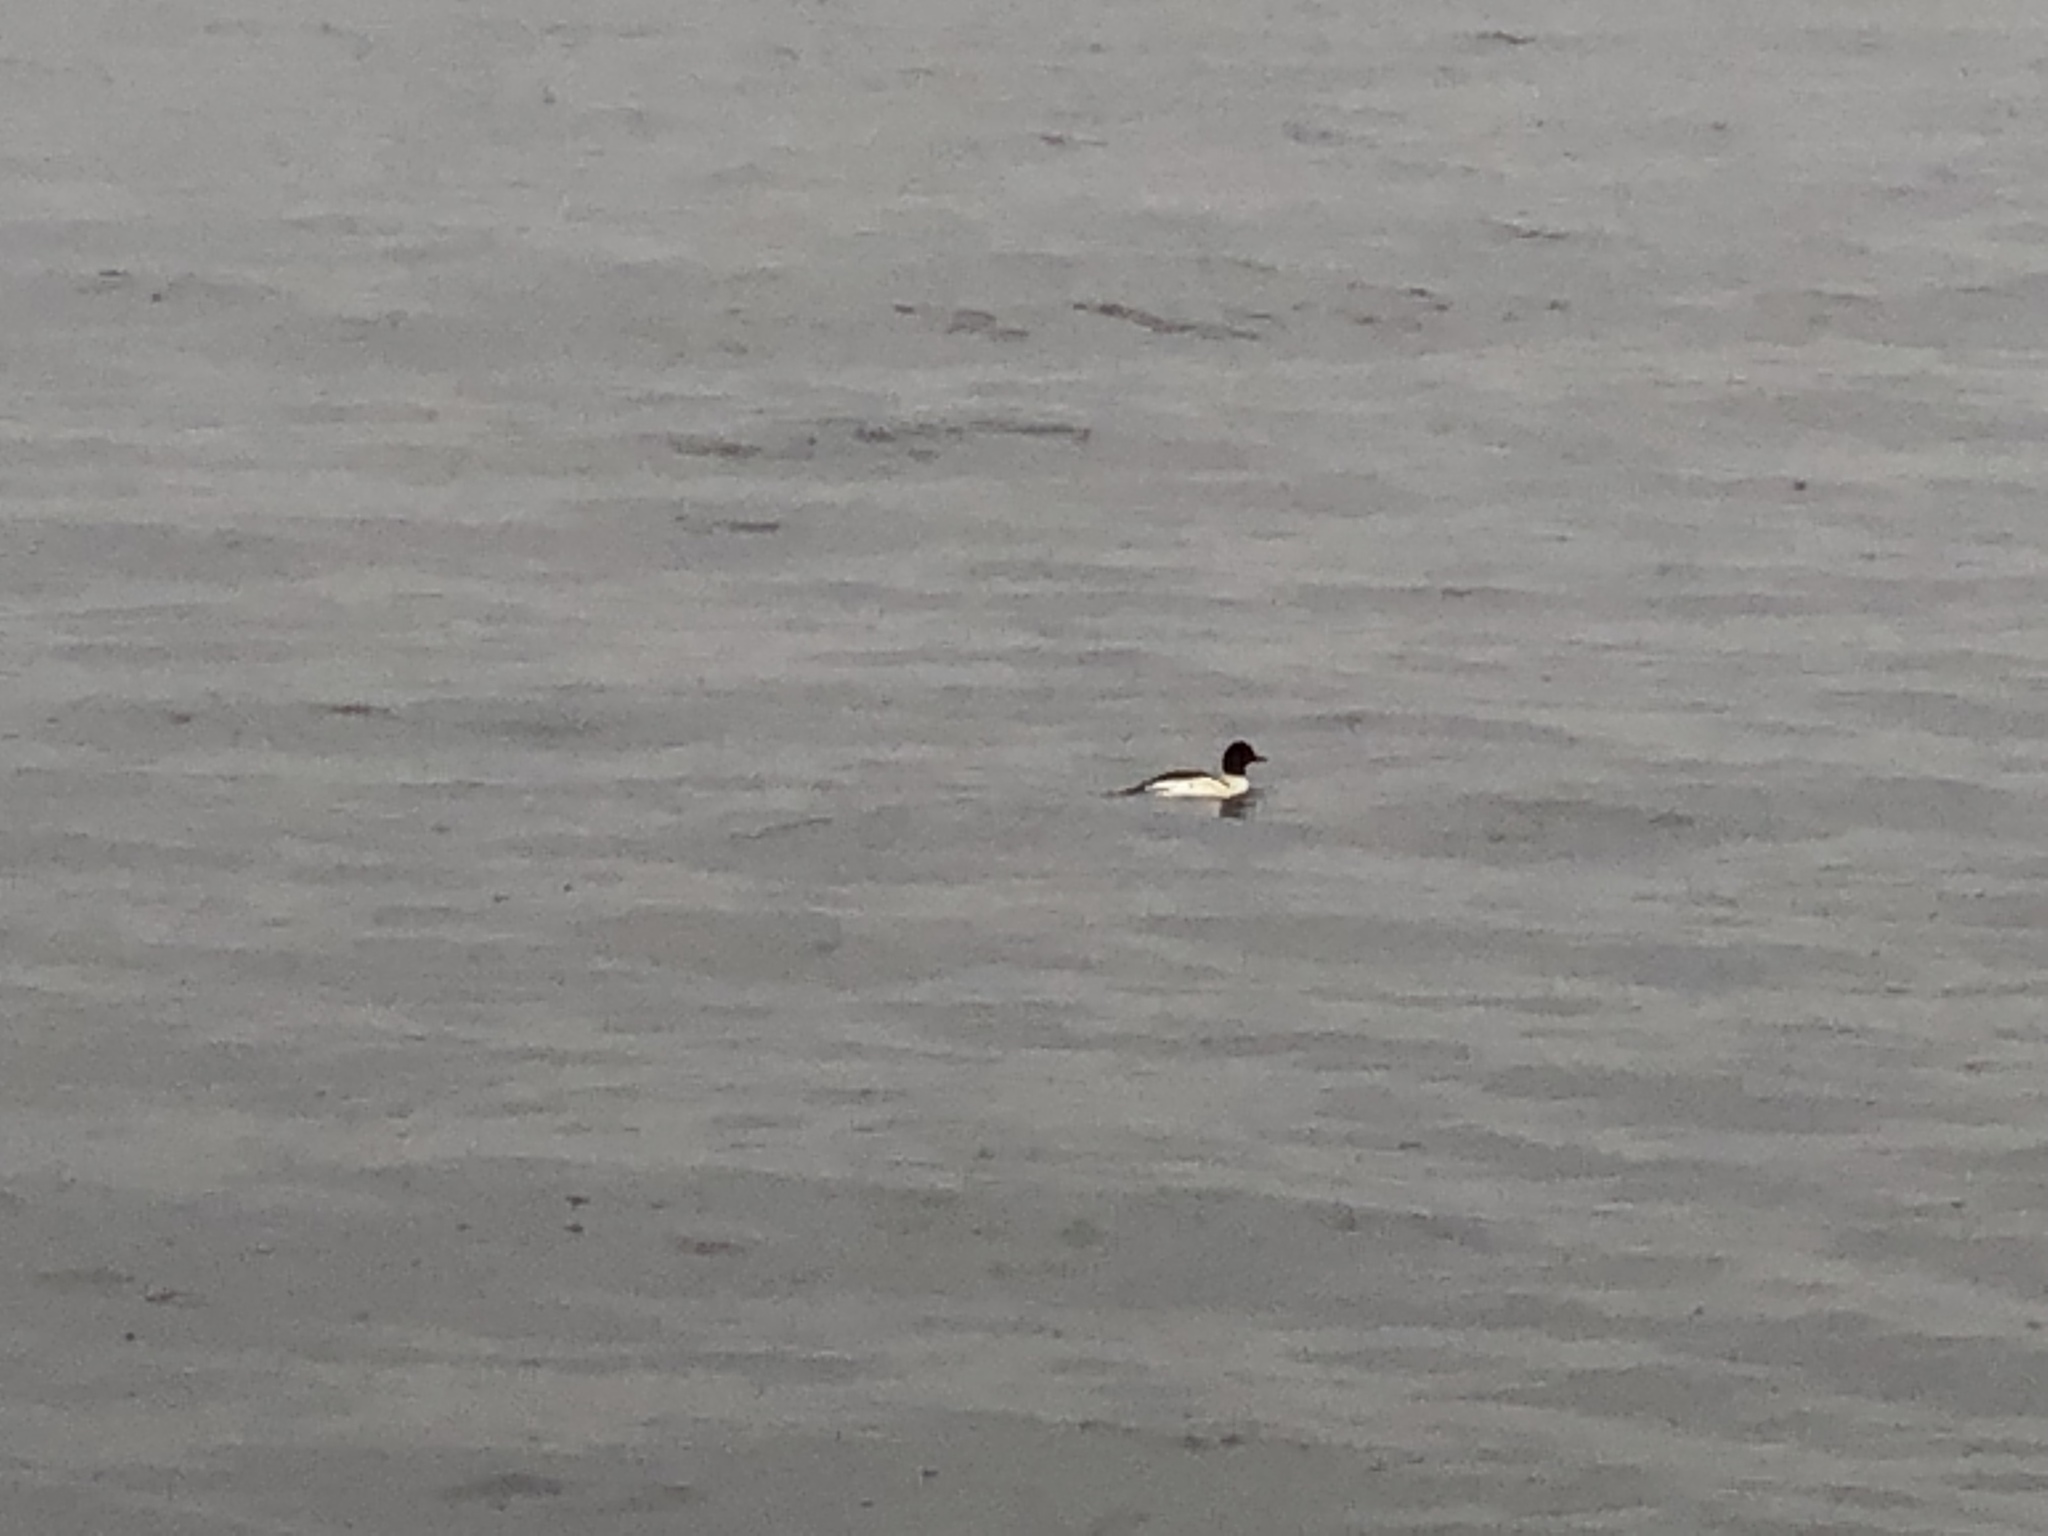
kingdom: Animalia
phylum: Chordata
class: Aves
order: Anseriformes
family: Anatidae
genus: Mergus
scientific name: Mergus merganser
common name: Common merganser
